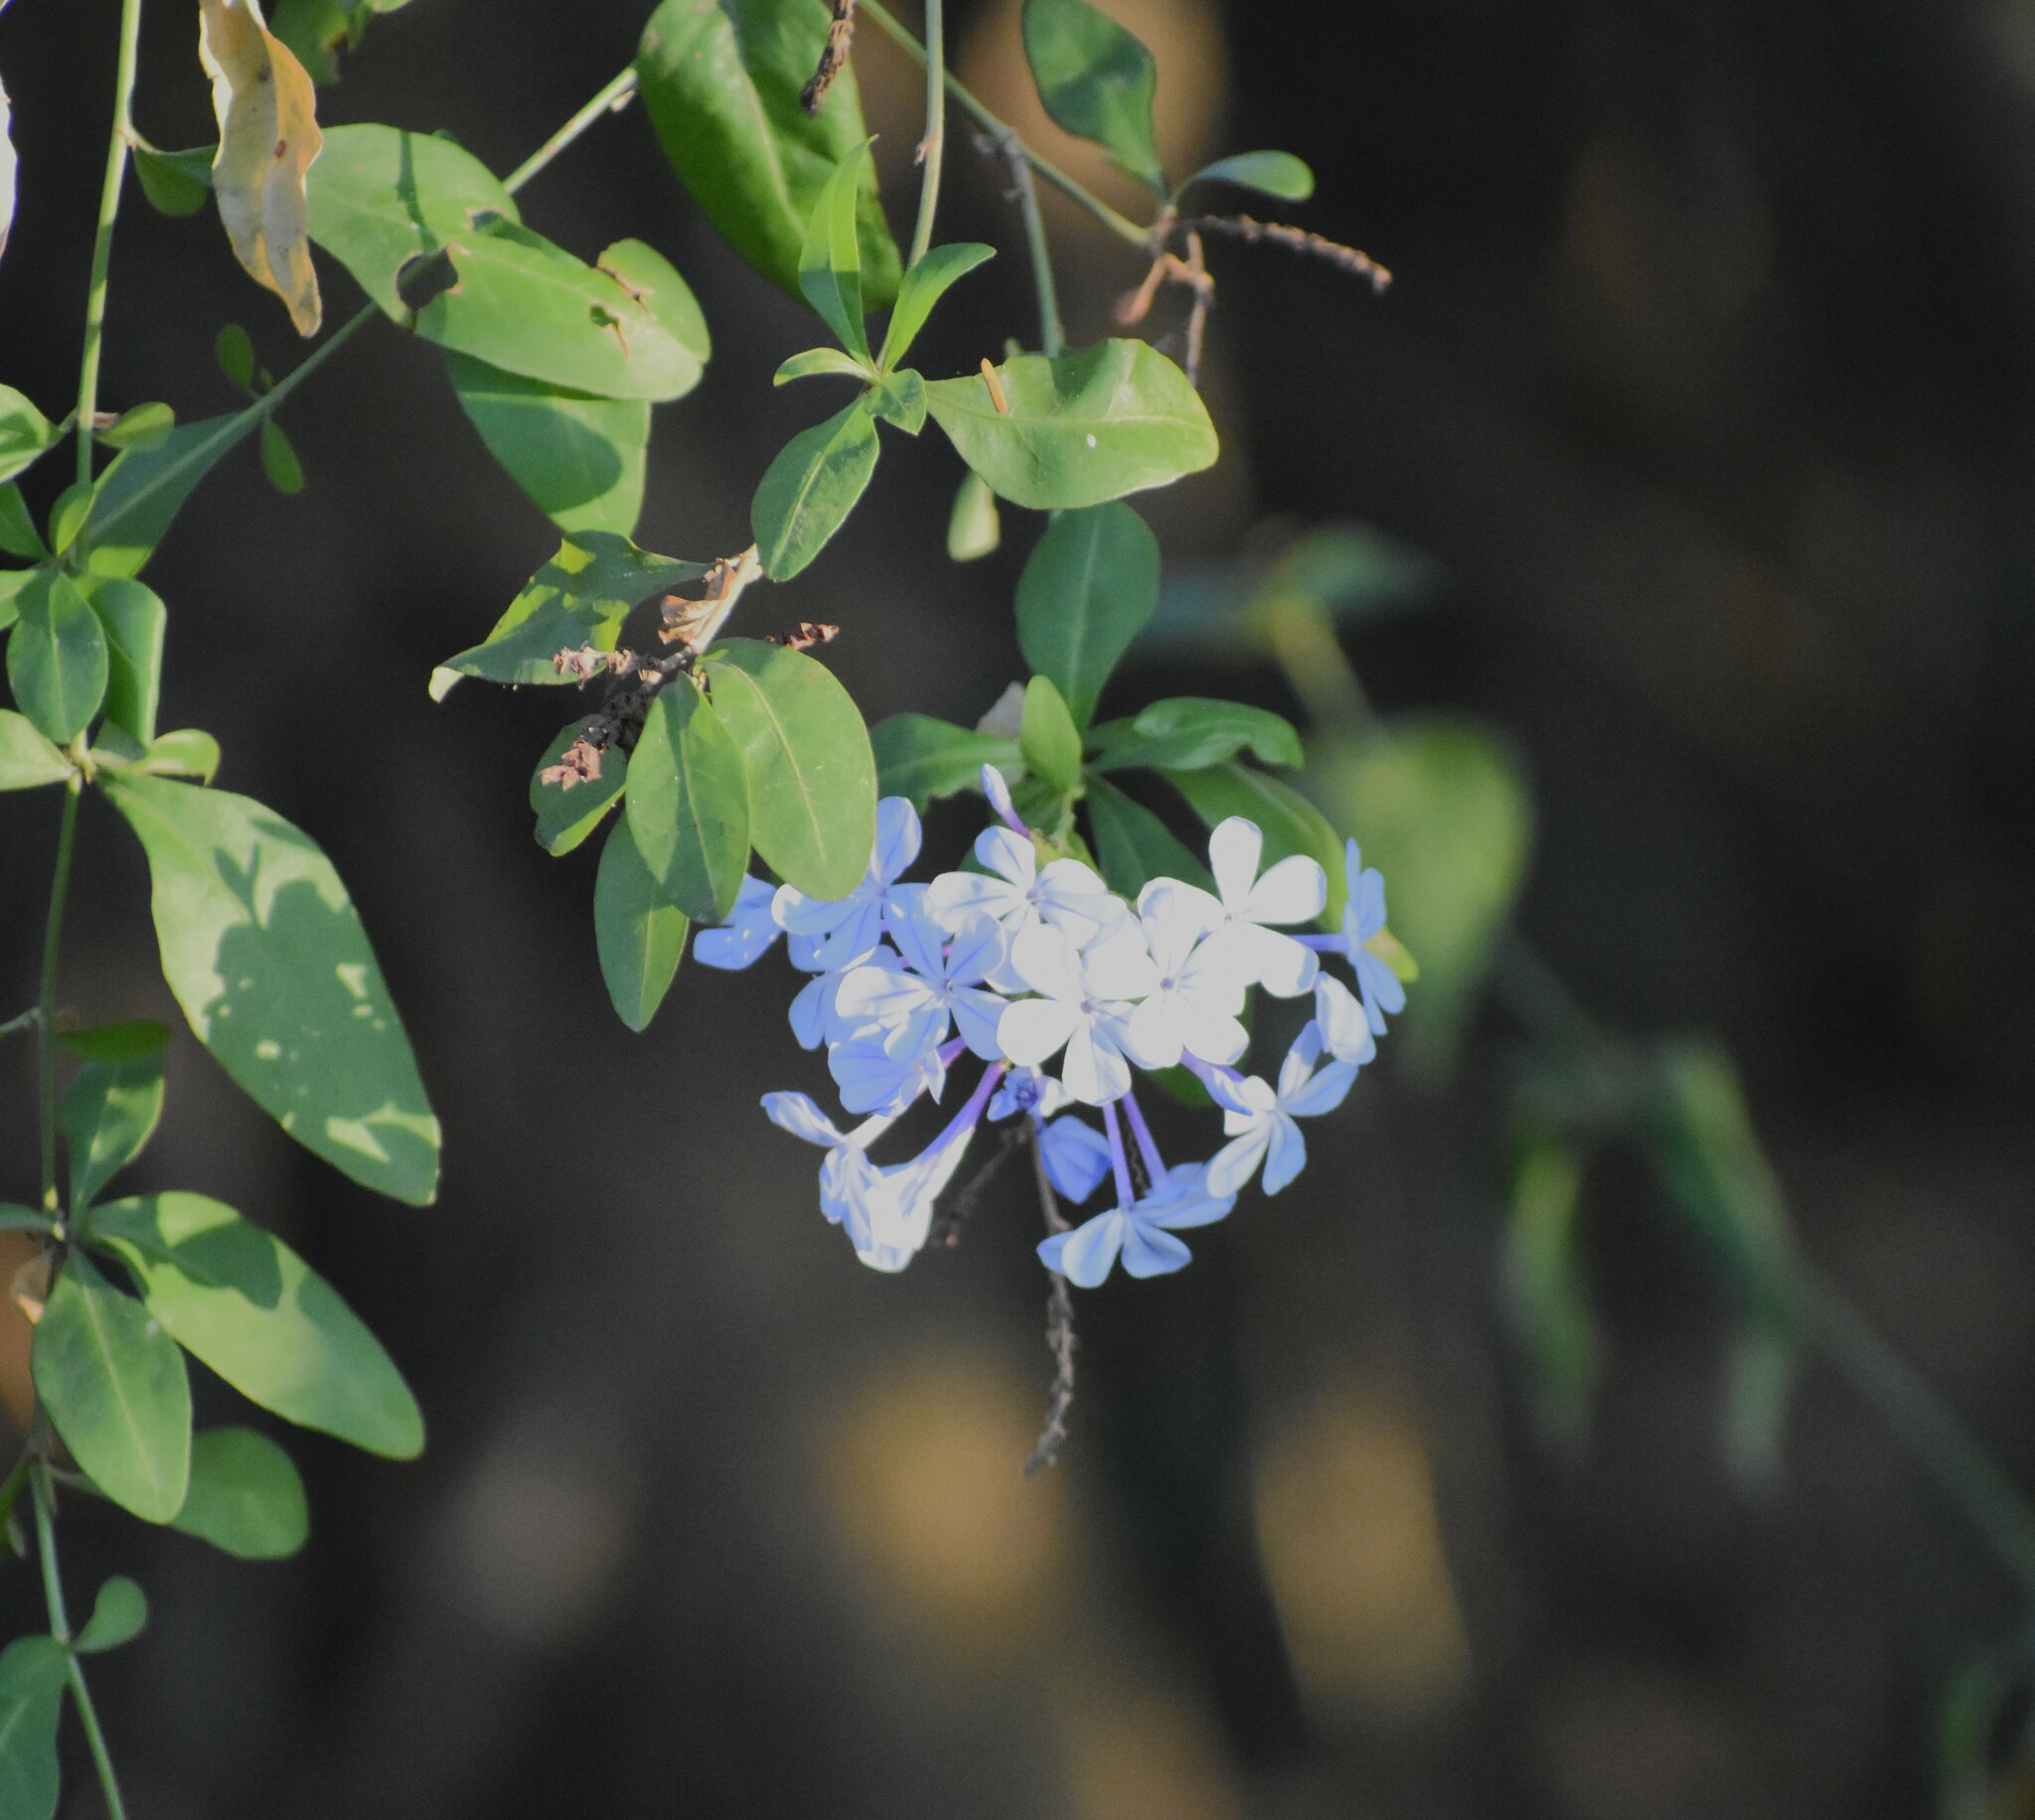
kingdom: Plantae
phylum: Tracheophyta
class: Magnoliopsida
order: Caryophyllales
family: Plumbaginaceae
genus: Plumbago
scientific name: Plumbago auriculata
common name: Cape leadwort
